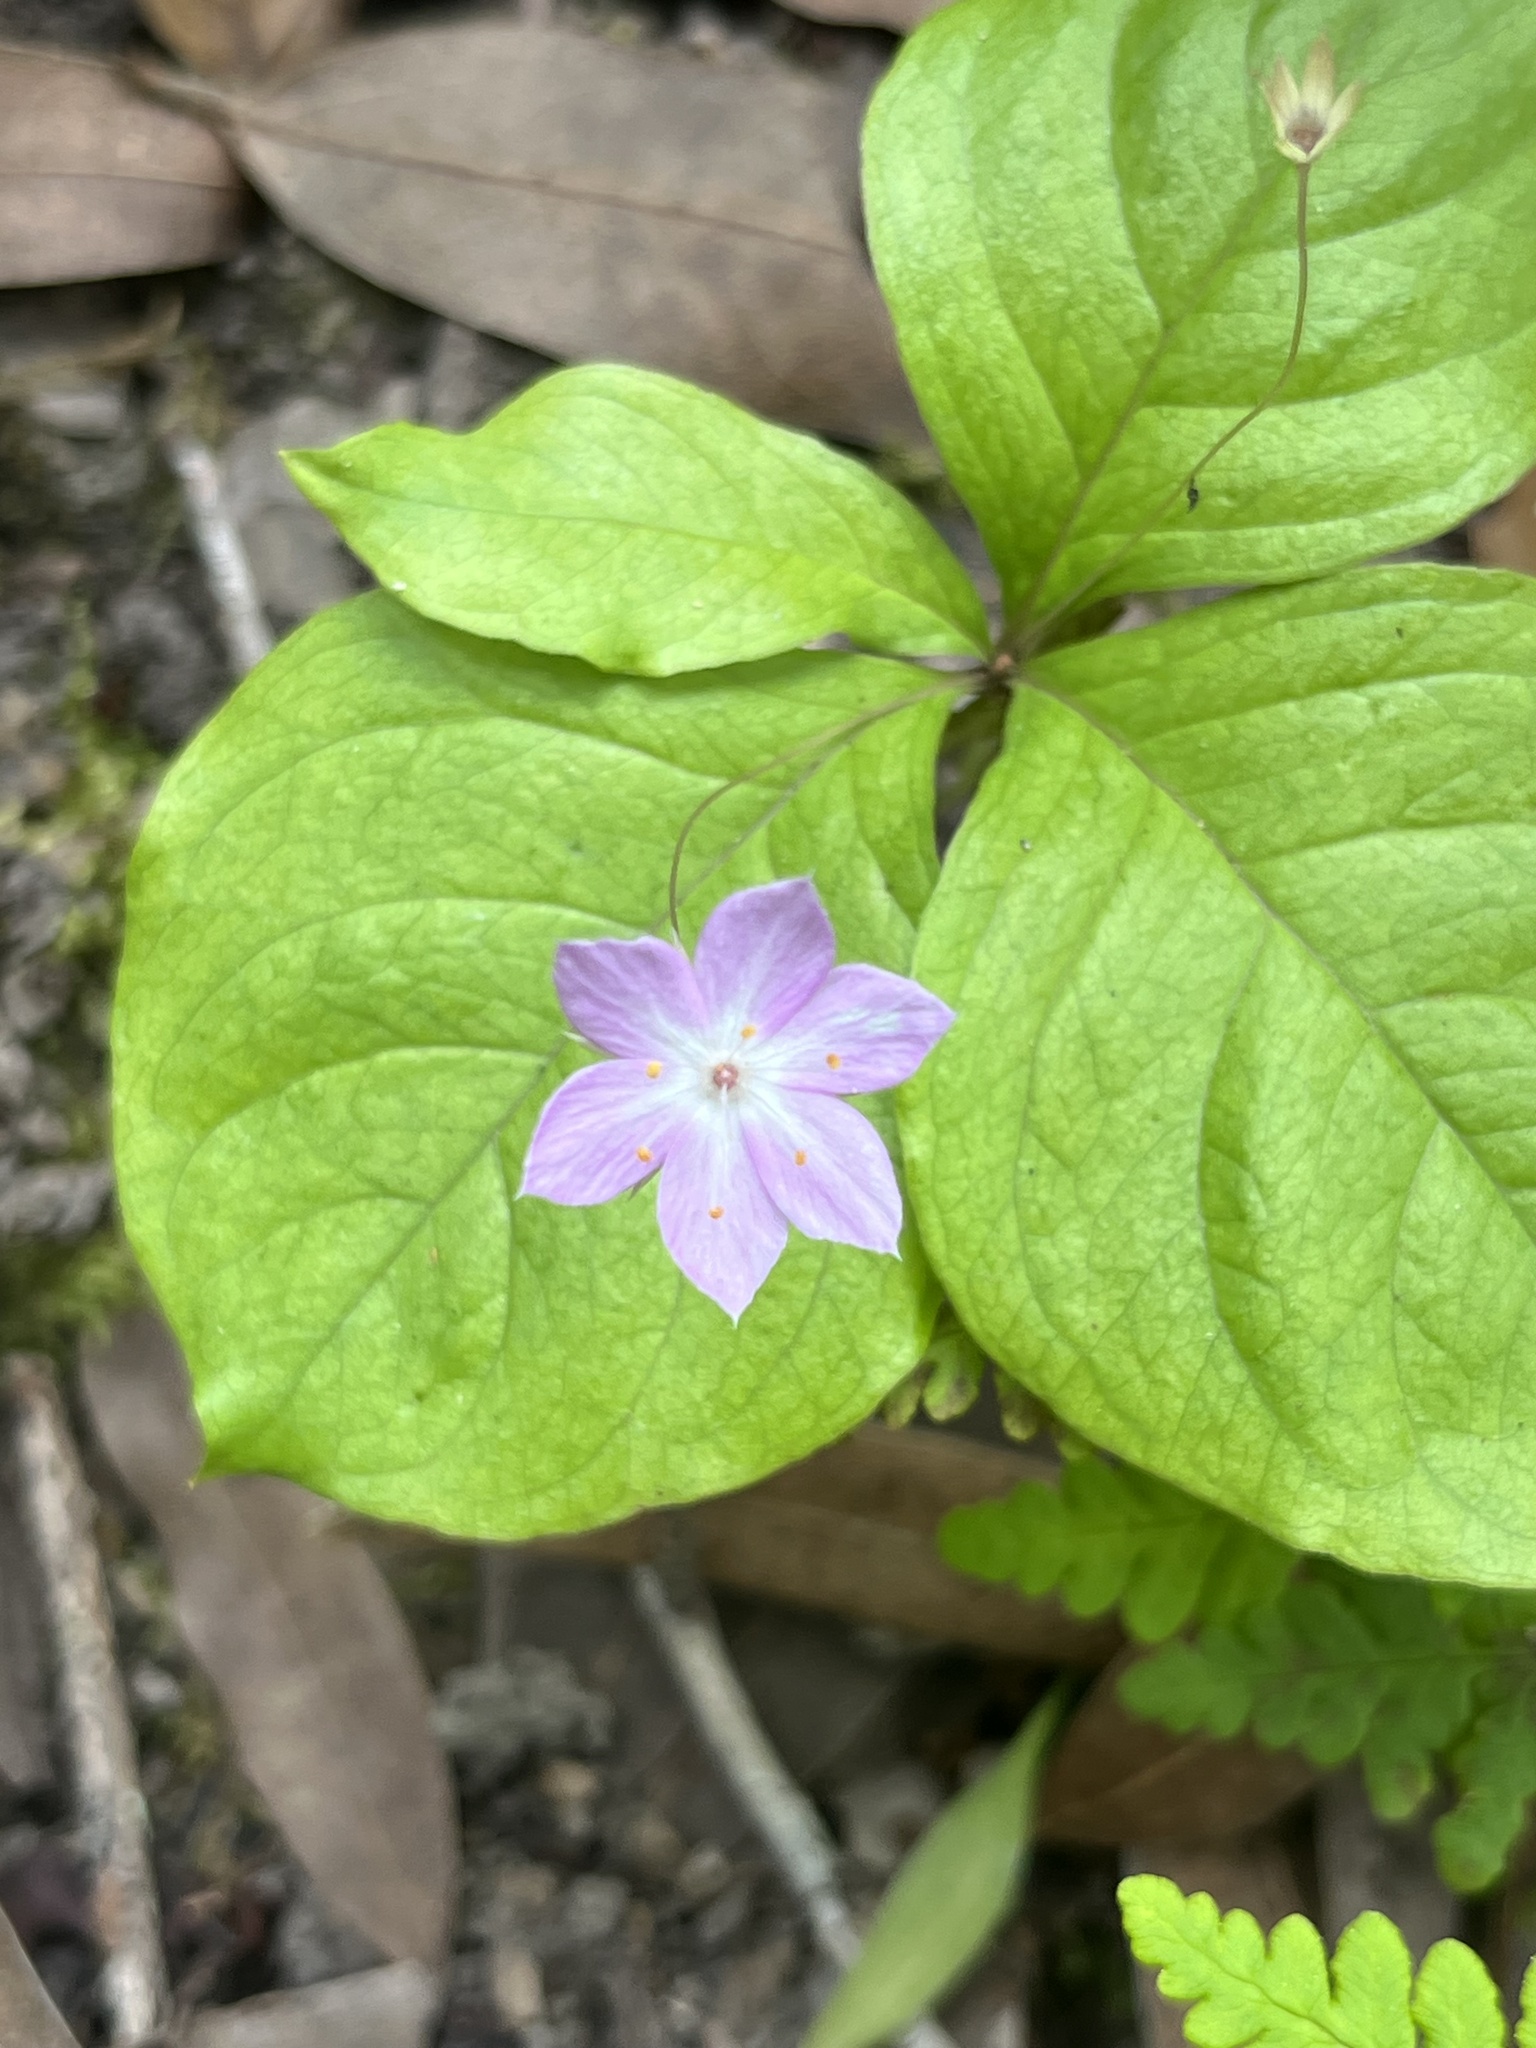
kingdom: Plantae
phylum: Tracheophyta
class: Magnoliopsida
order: Ericales
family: Primulaceae
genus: Lysimachia
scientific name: Lysimachia latifolia
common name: Pacific starflower
